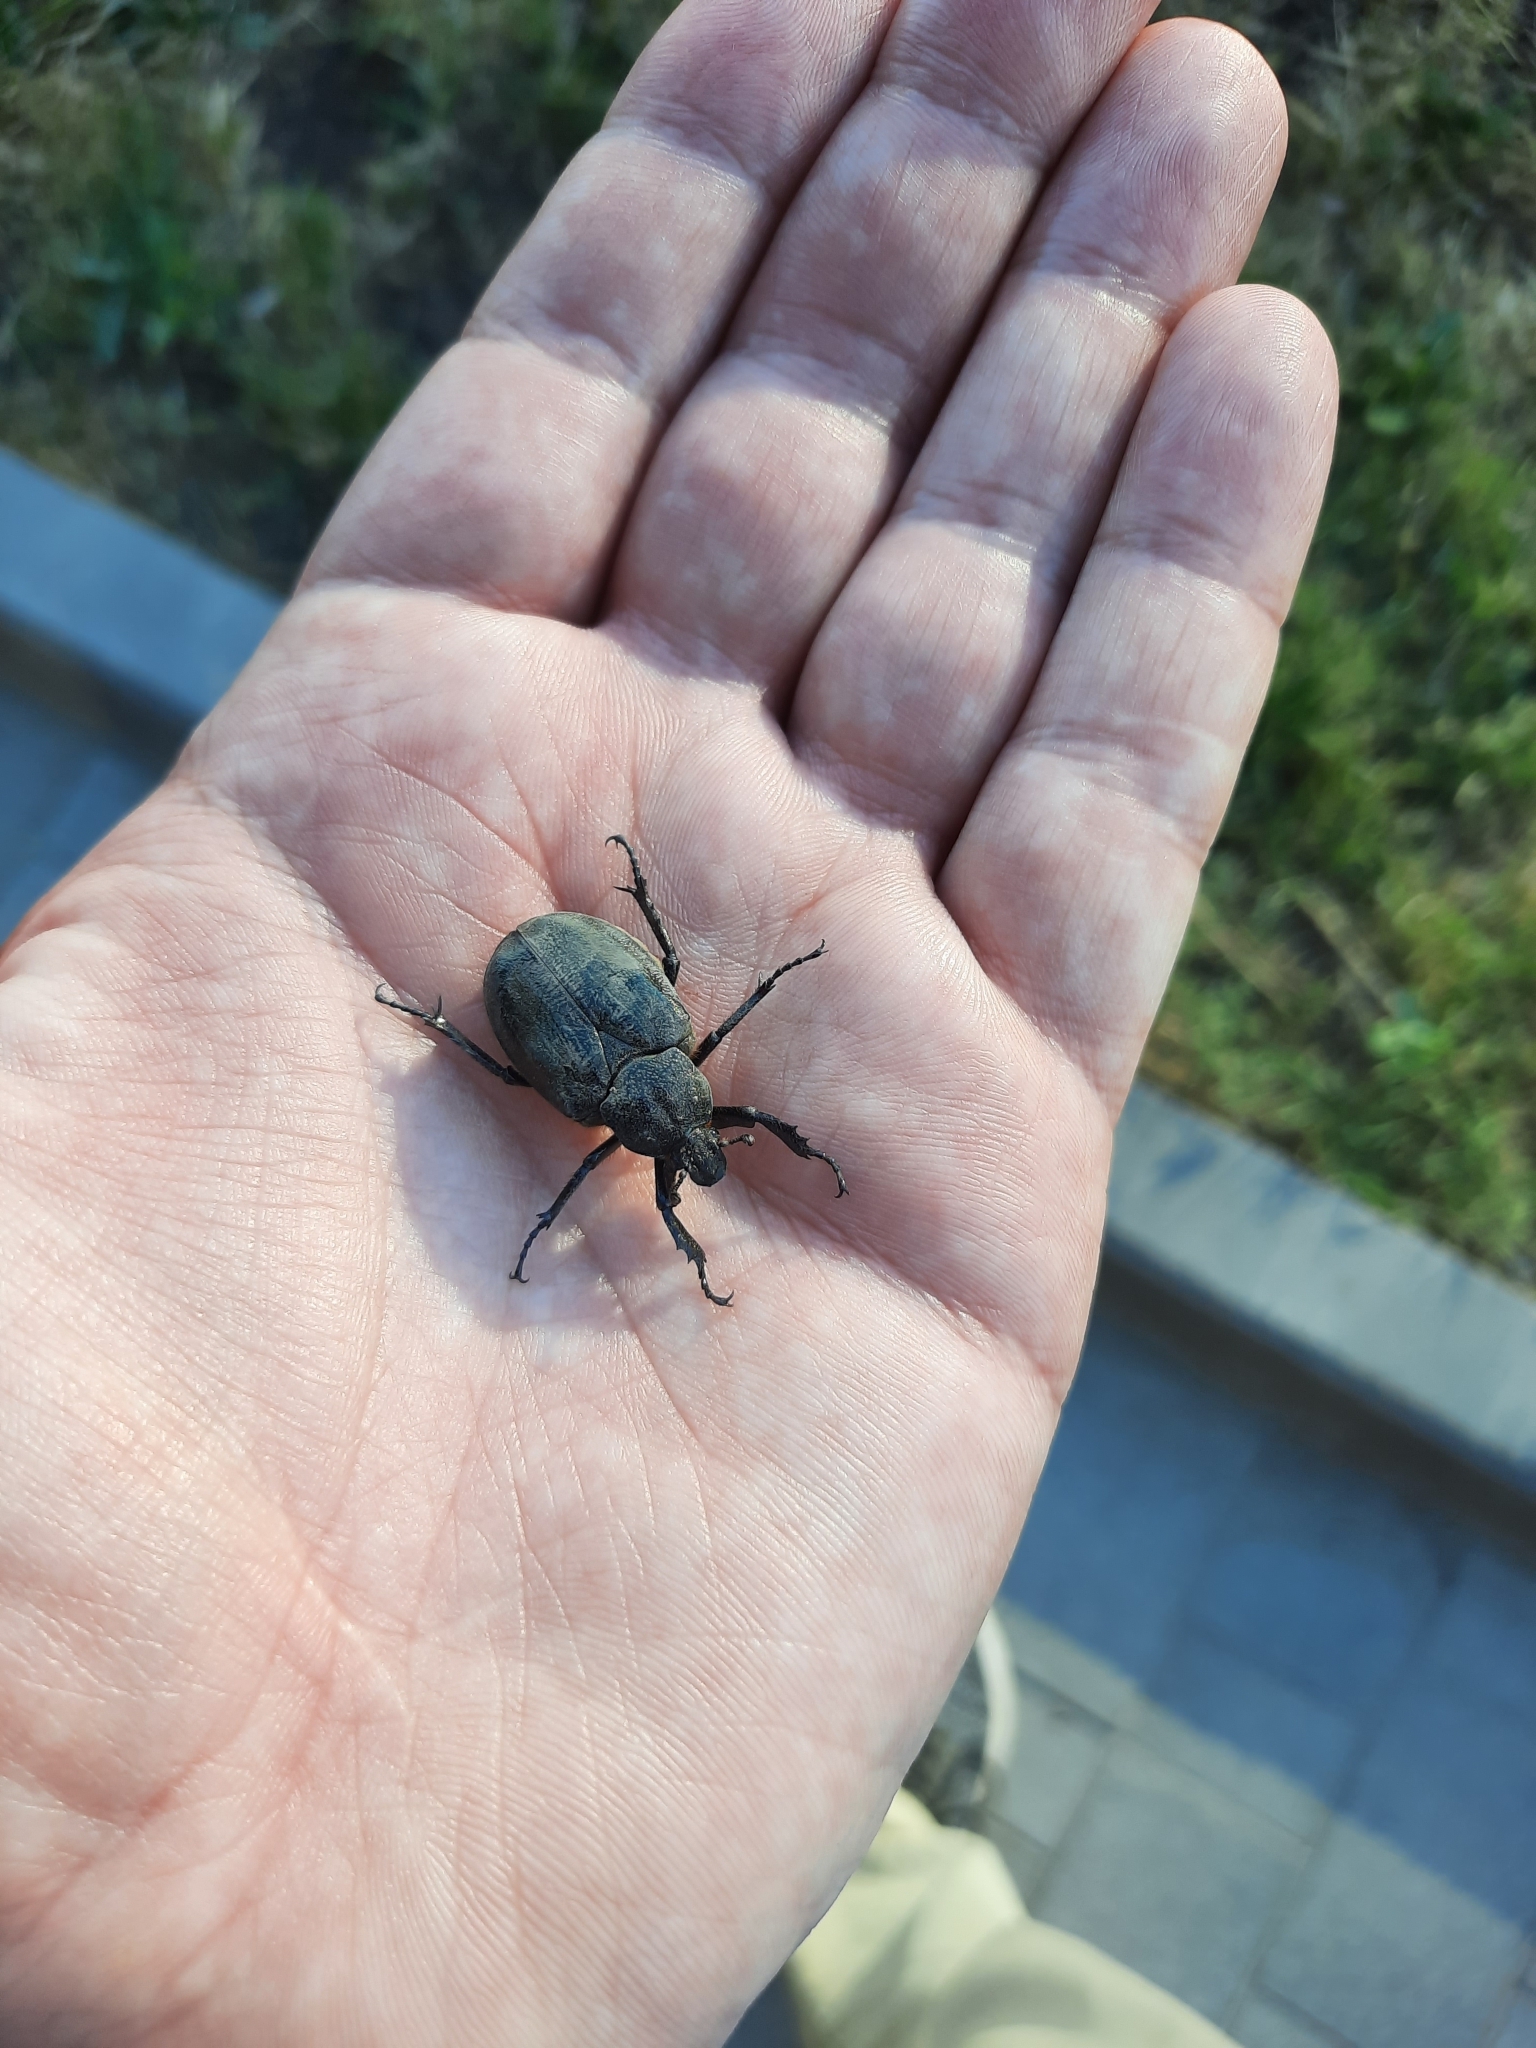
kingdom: Animalia
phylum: Arthropoda
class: Insecta
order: Coleoptera
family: Scarabaeidae
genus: Osmoderma
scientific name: Osmoderma barnabita
